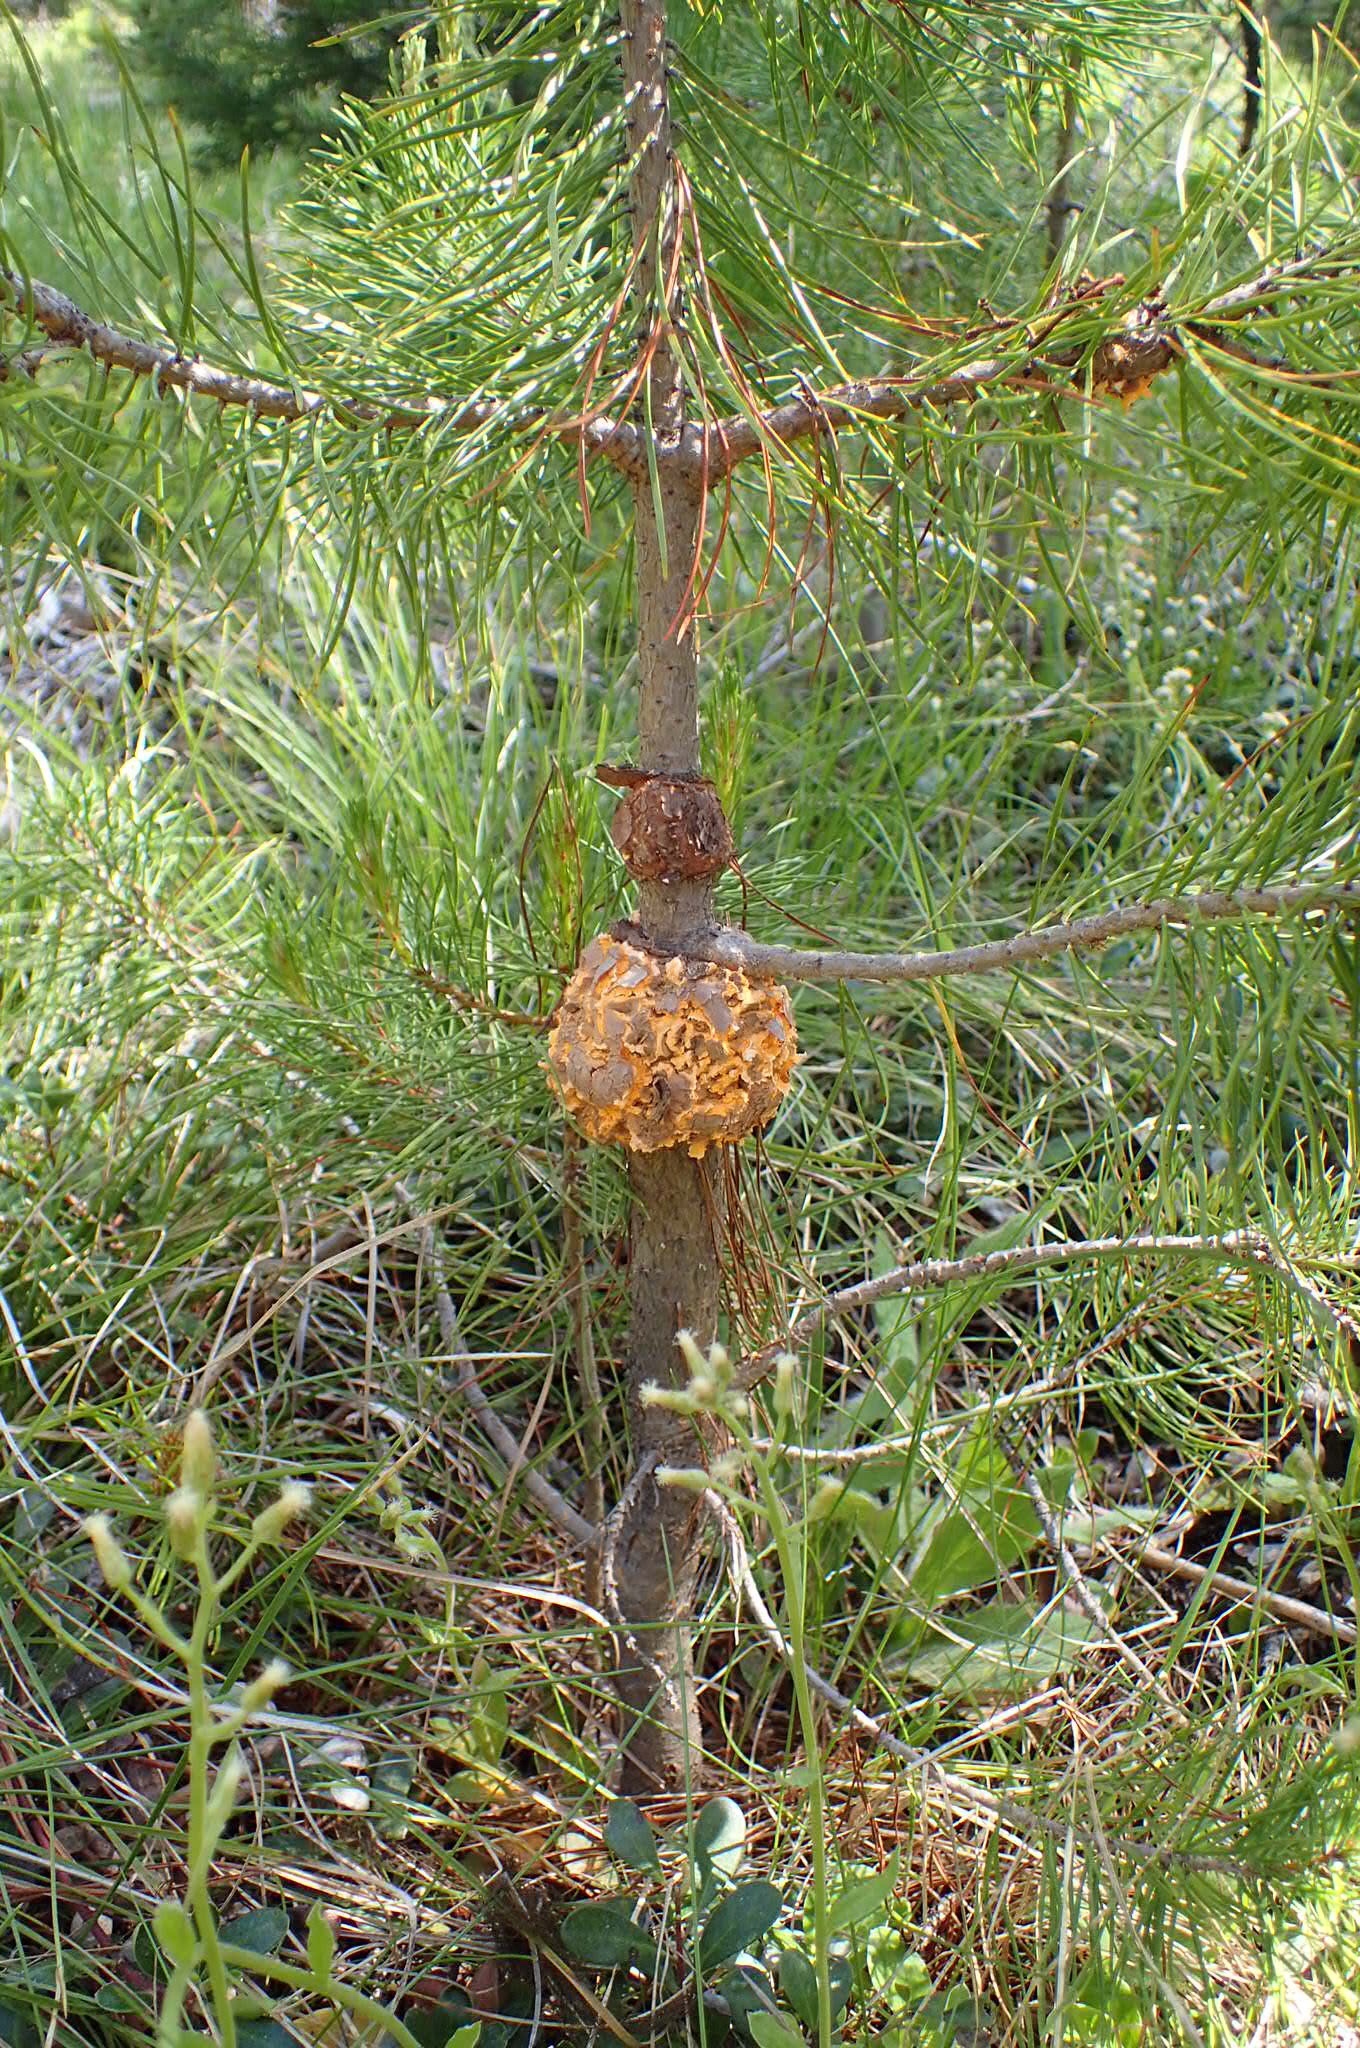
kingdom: Fungi
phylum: Basidiomycota
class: Pucciniomycetes
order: Pucciniales
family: Cronartiaceae
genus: Cronartium
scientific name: Cronartium harknessii
